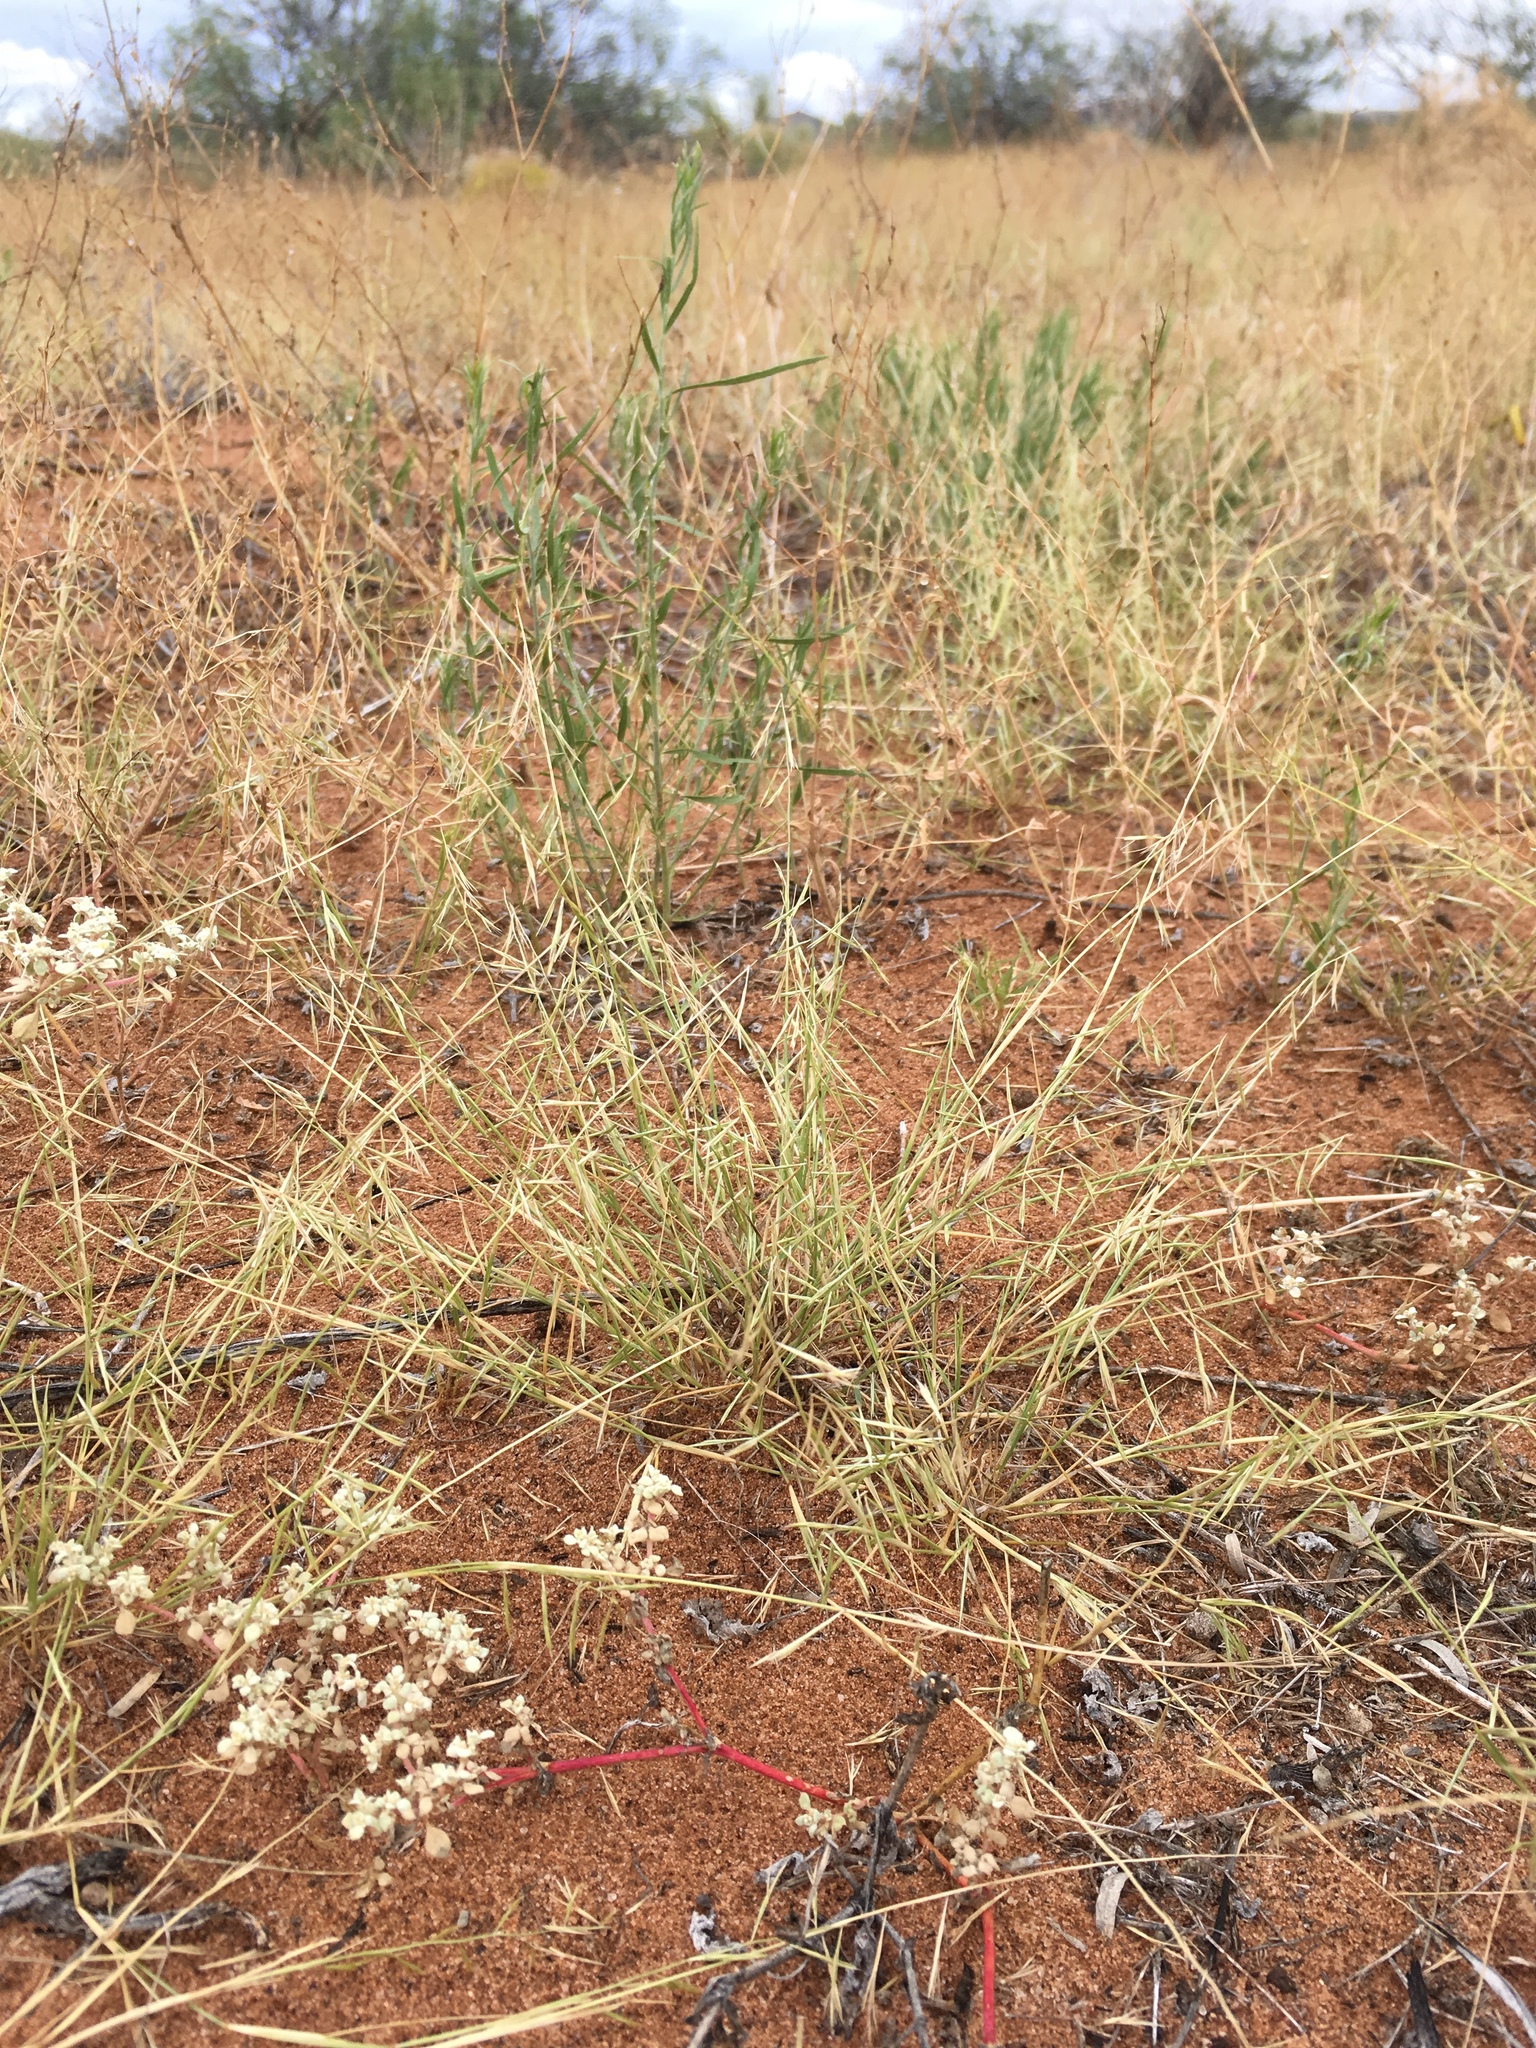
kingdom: Plantae
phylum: Tracheophyta
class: Liliopsida
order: Poales
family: Poaceae
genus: Bouteloua
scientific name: Bouteloua aristidoides
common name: Needle grama
